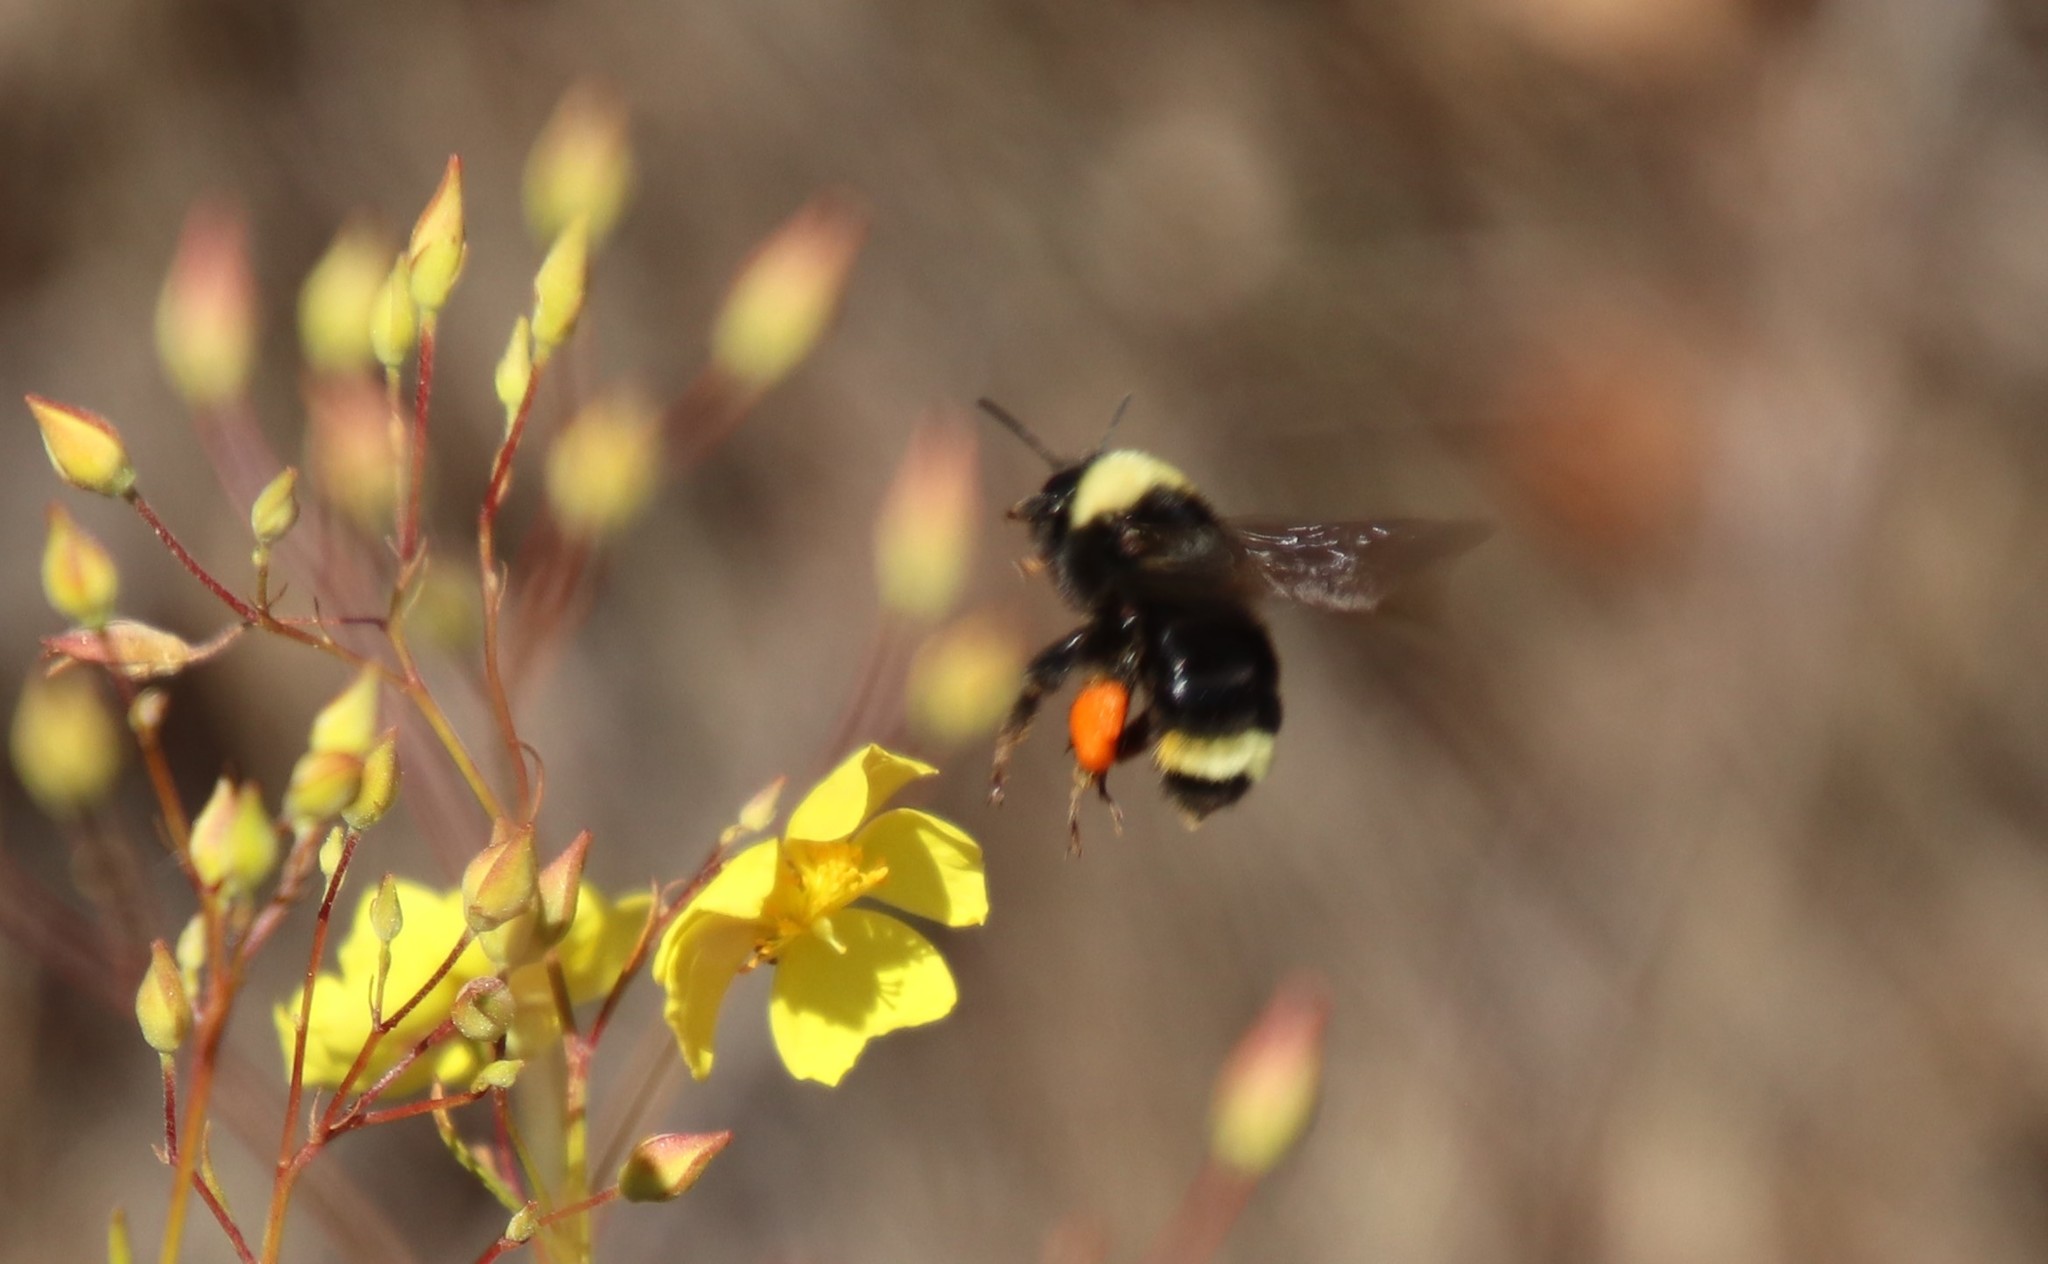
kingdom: Animalia
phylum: Arthropoda
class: Insecta
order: Hymenoptera
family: Apidae
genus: Bombus
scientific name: Bombus californicus
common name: California bumble bee
